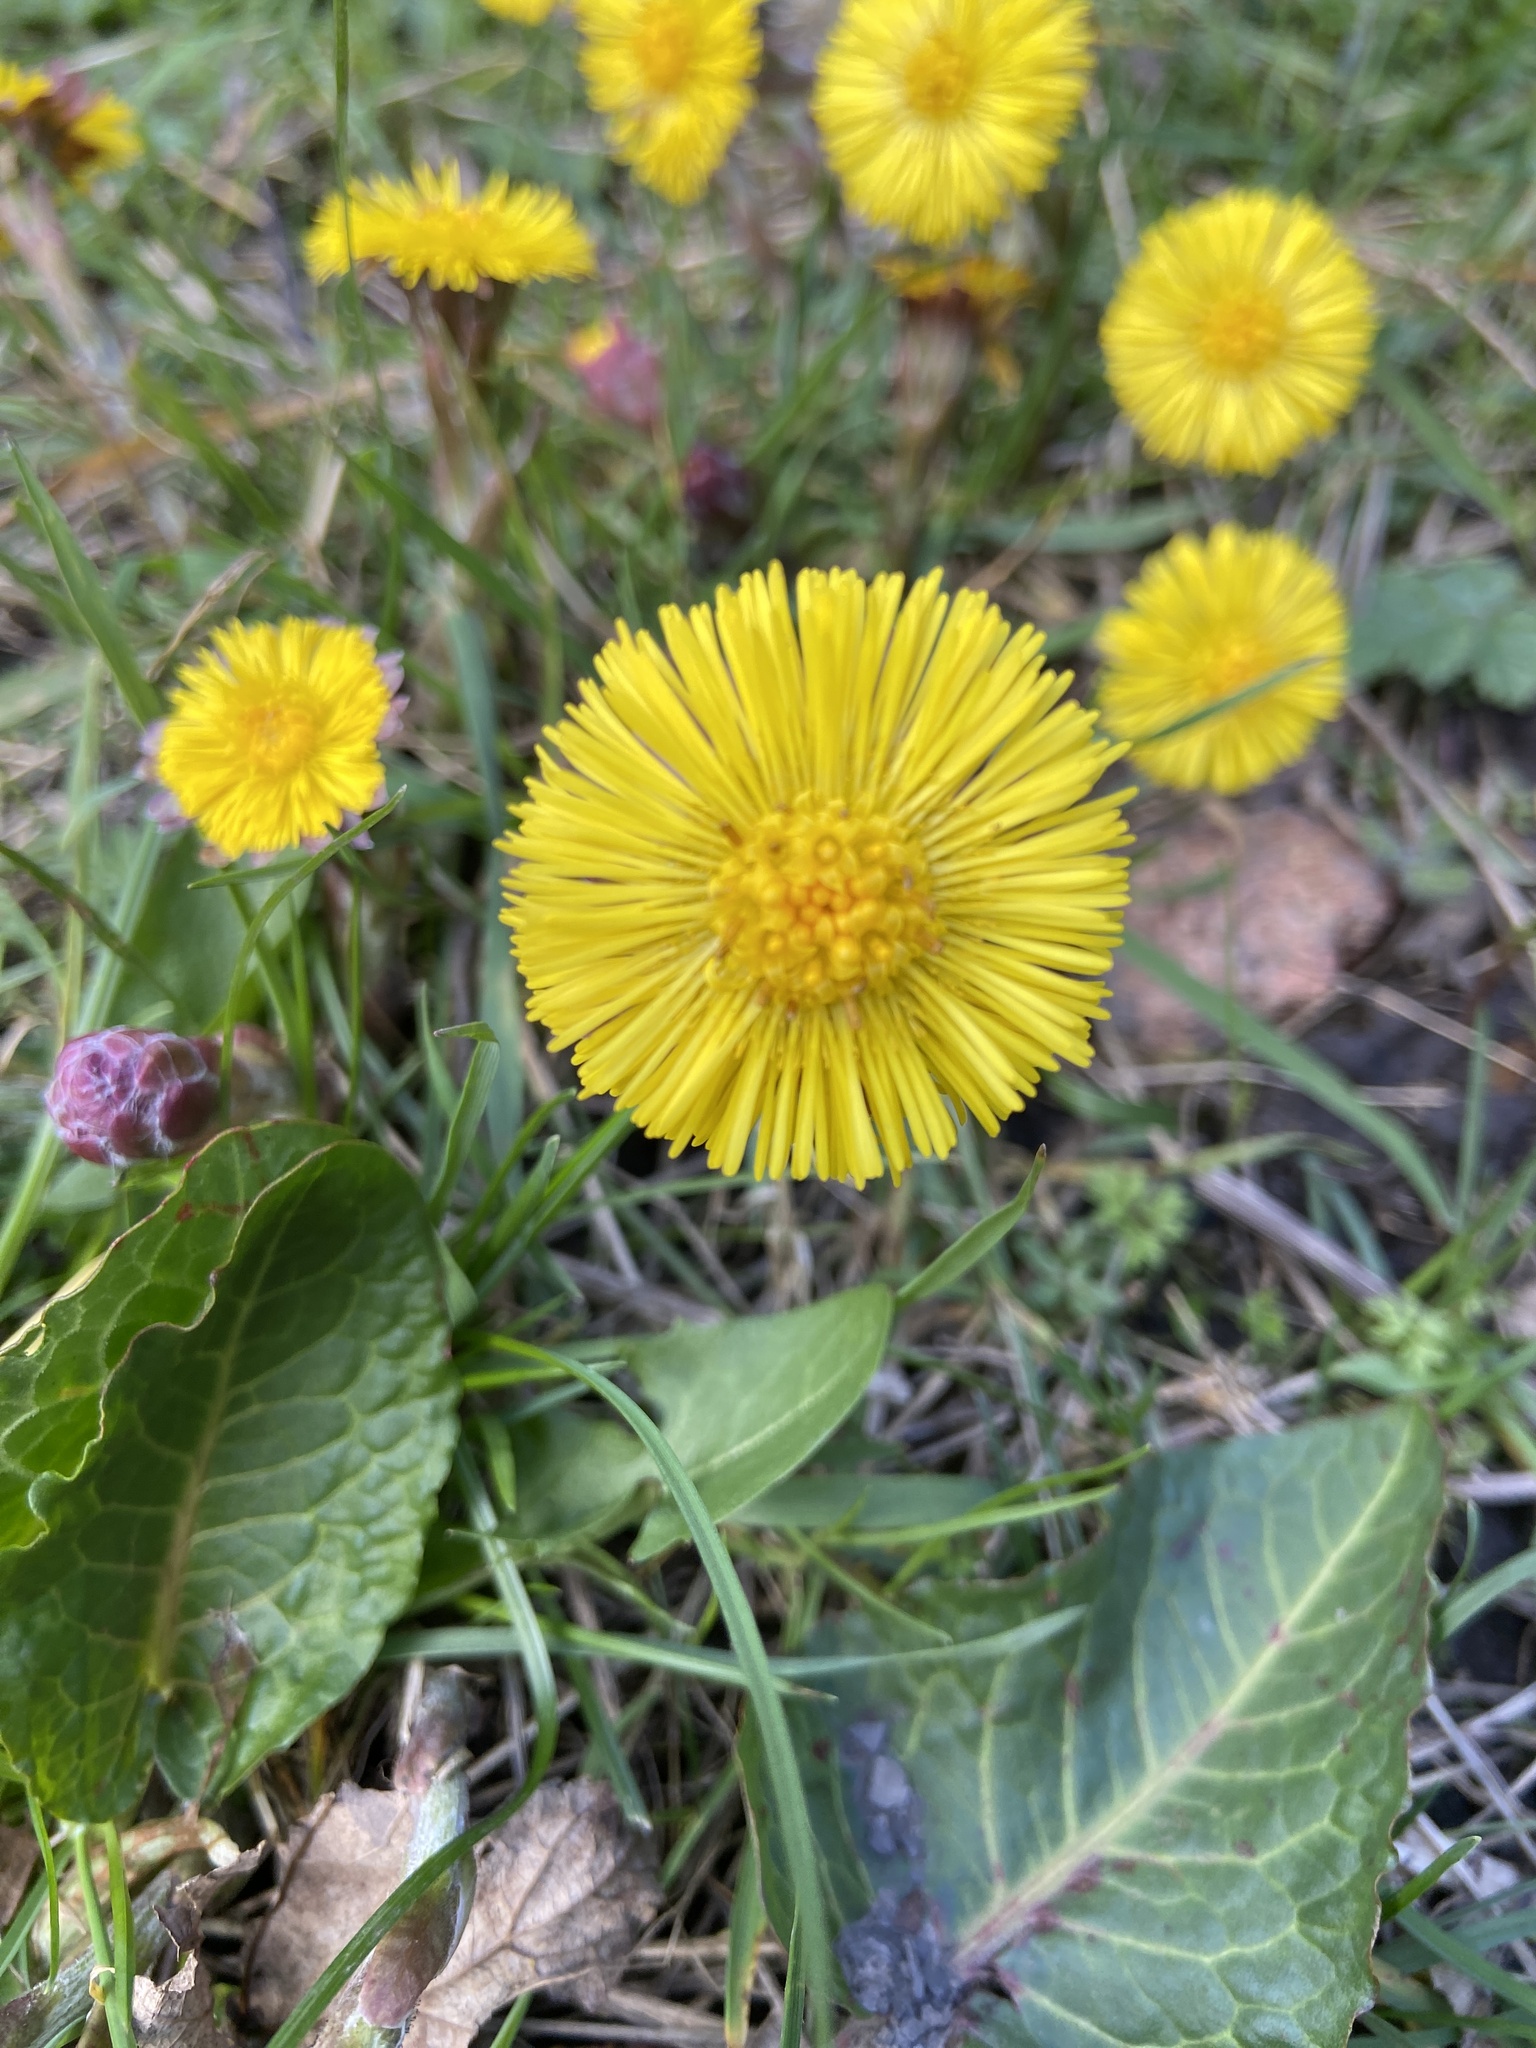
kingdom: Plantae
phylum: Tracheophyta
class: Magnoliopsida
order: Asterales
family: Asteraceae
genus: Tussilago
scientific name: Tussilago farfara
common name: Coltsfoot
